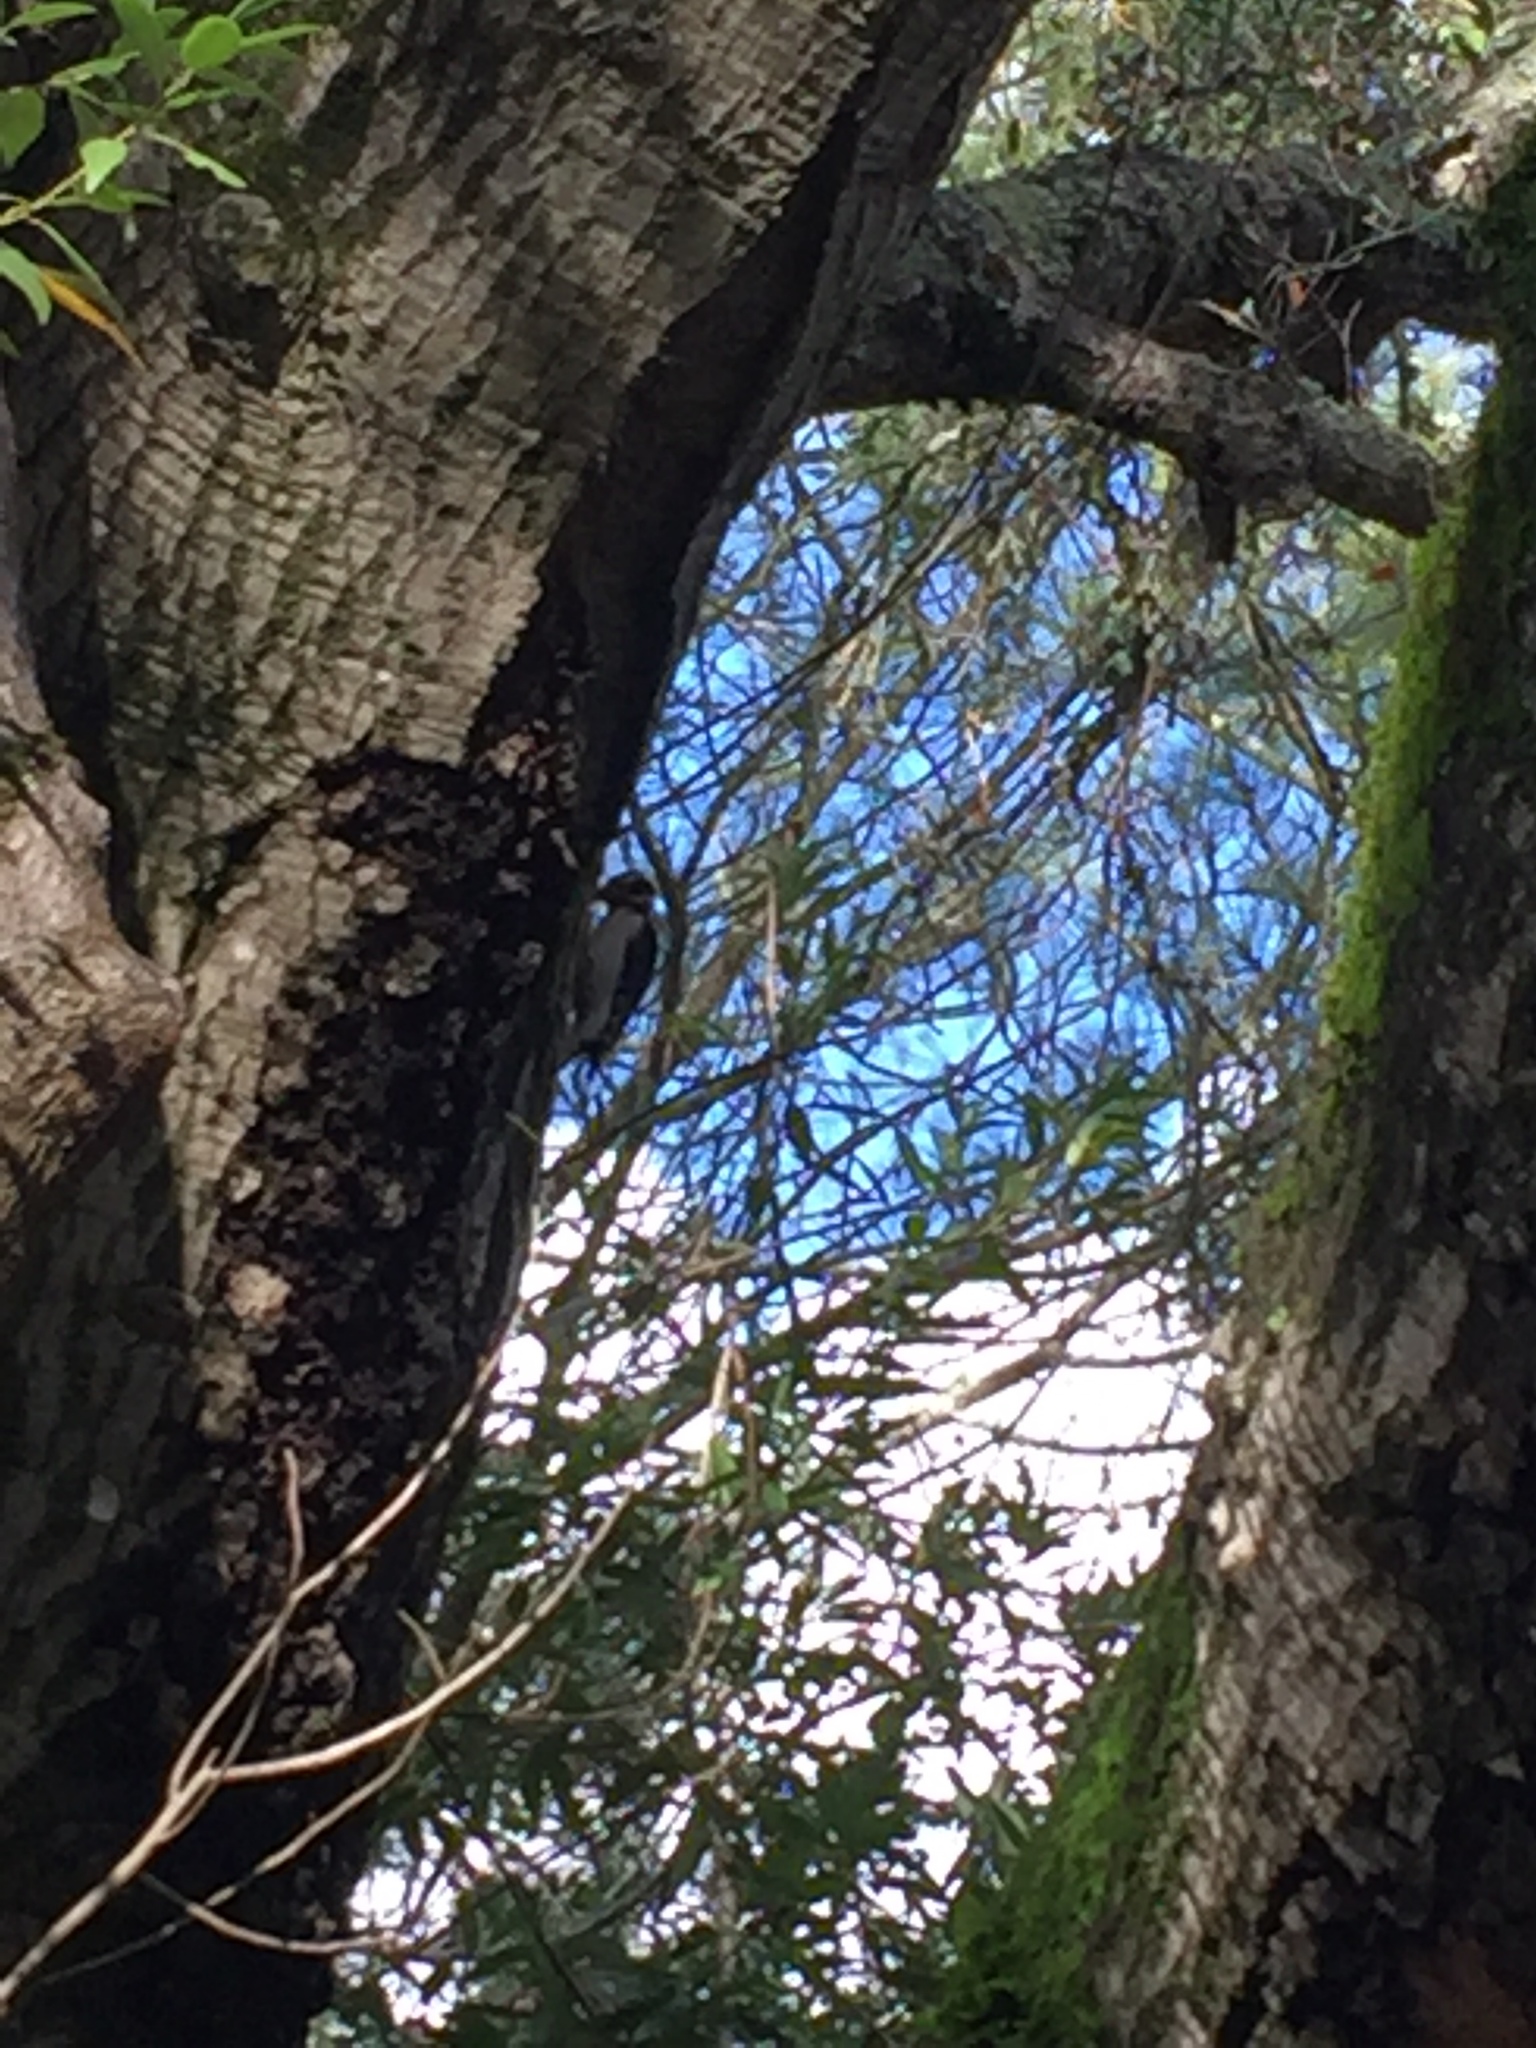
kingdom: Animalia
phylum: Chordata
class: Aves
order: Piciformes
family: Picidae
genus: Dryobates
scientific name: Dryobates pubescens
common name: Downy woodpecker
